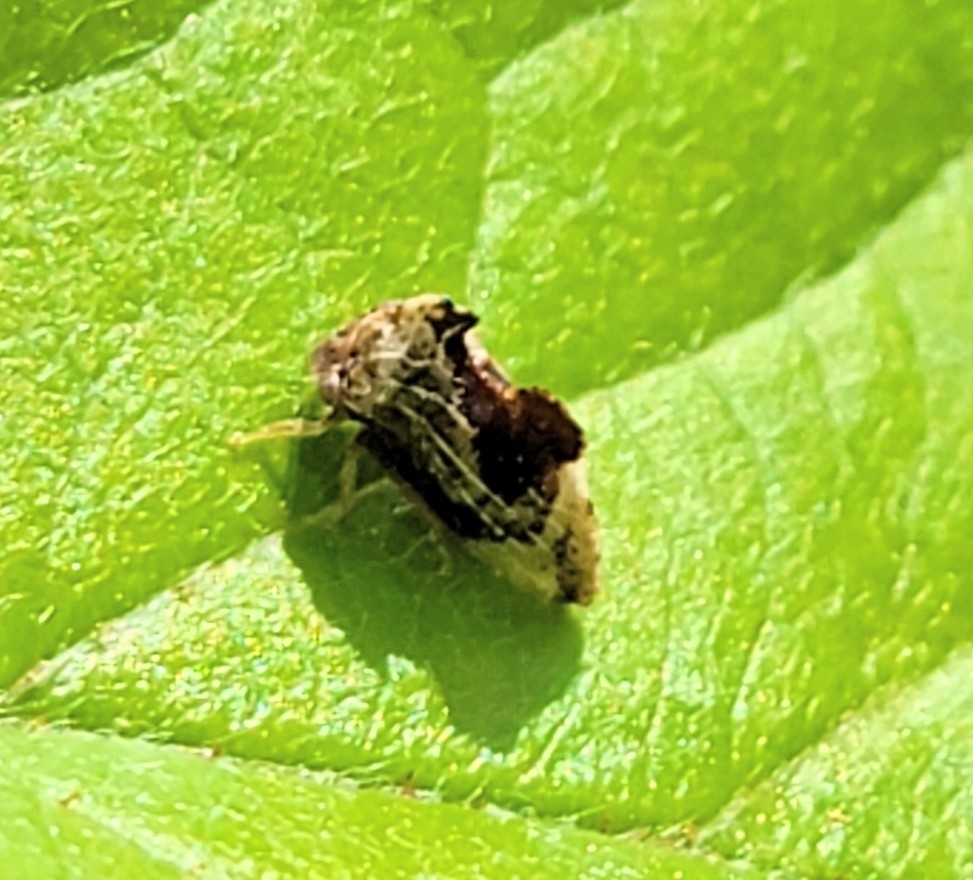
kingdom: Animalia
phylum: Arthropoda
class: Insecta
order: Hemiptera
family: Membracidae
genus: Entylia
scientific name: Entylia carinata
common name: Keeled treehopper
